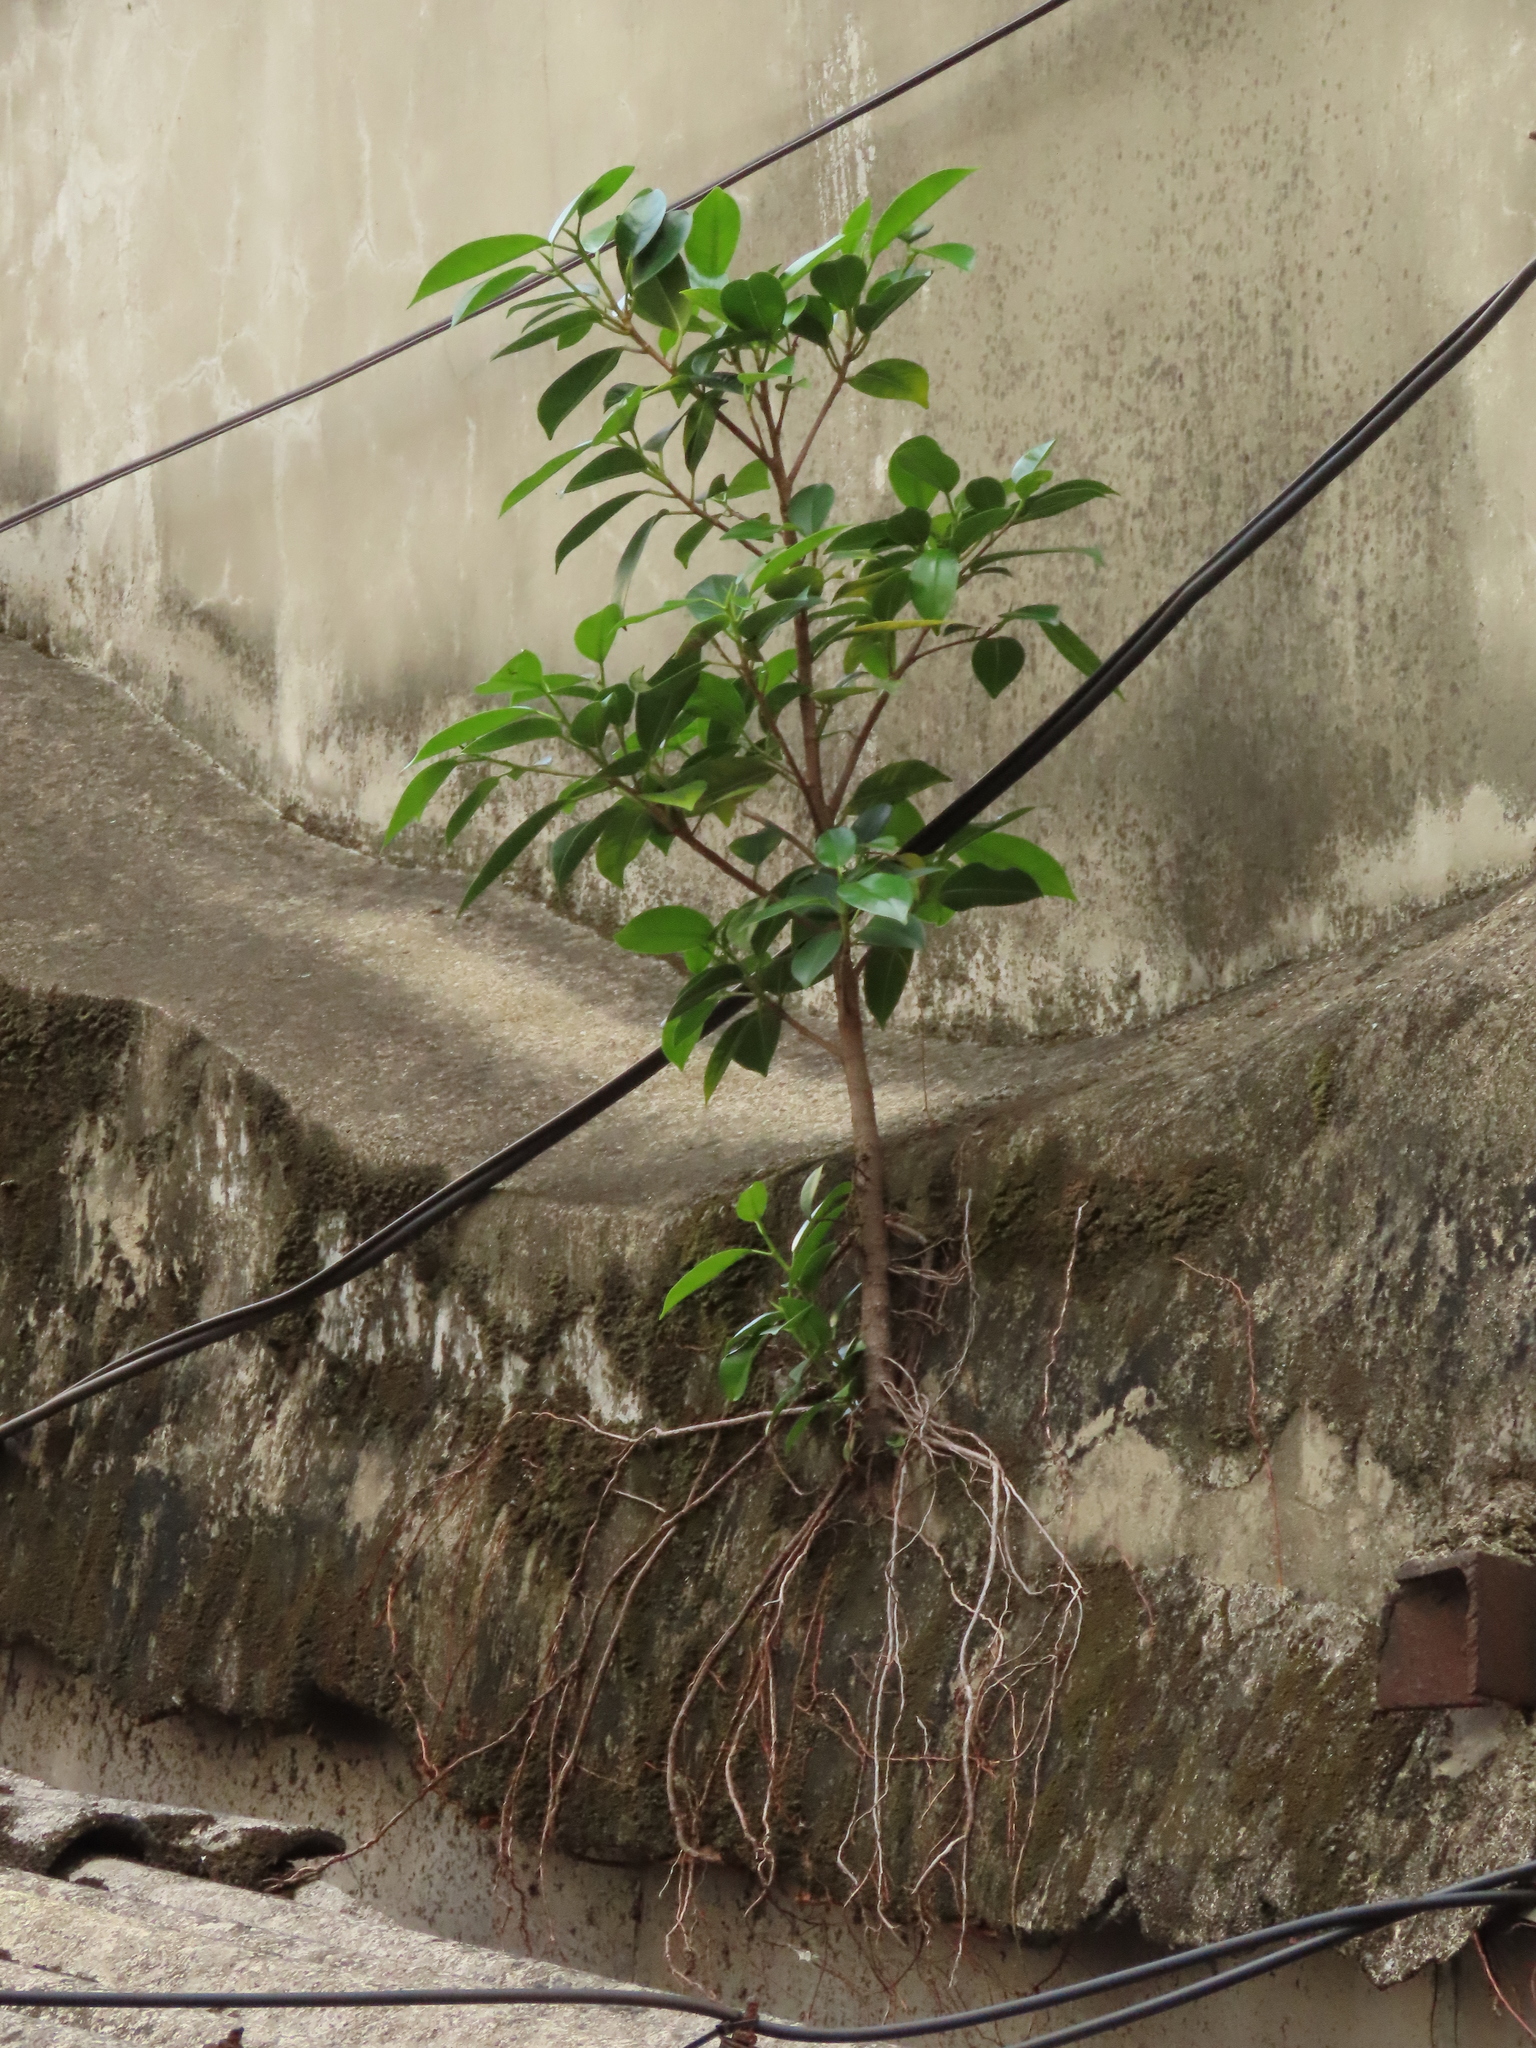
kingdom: Plantae
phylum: Tracheophyta
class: Magnoliopsida
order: Rosales
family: Moraceae
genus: Ficus
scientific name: Ficus microcarpa
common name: Chinese banyan
